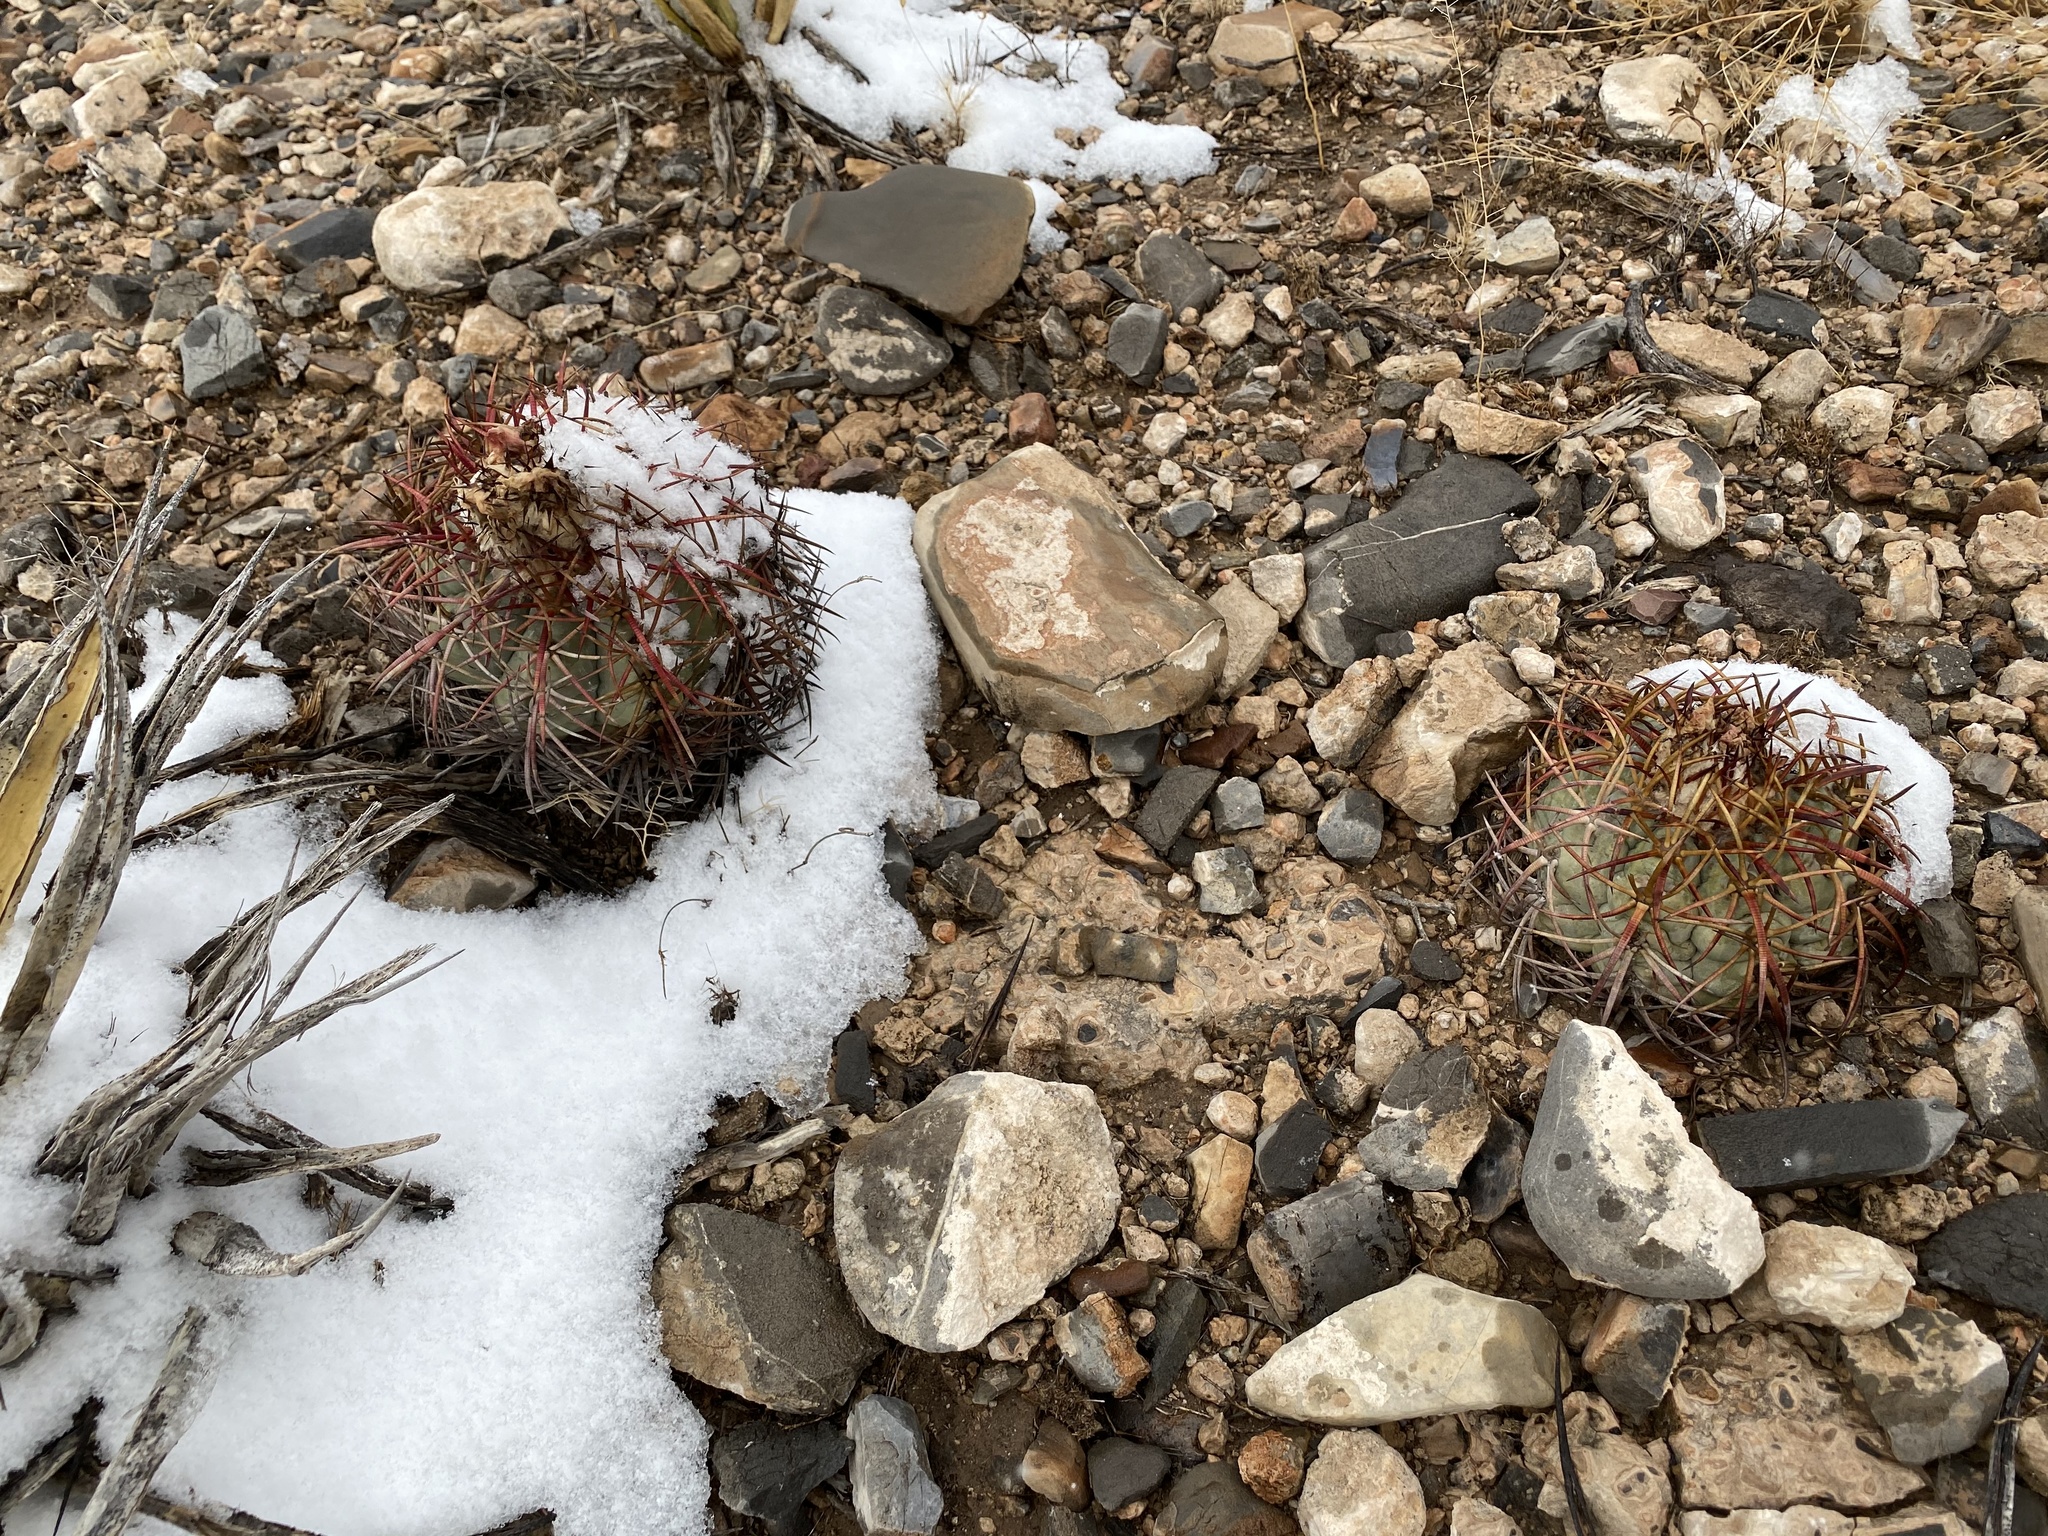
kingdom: Plantae
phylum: Tracheophyta
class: Magnoliopsida
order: Caryophyllales
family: Cactaceae
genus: Echinocactus
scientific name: Echinocactus horizonthalonius
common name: Devilshead
